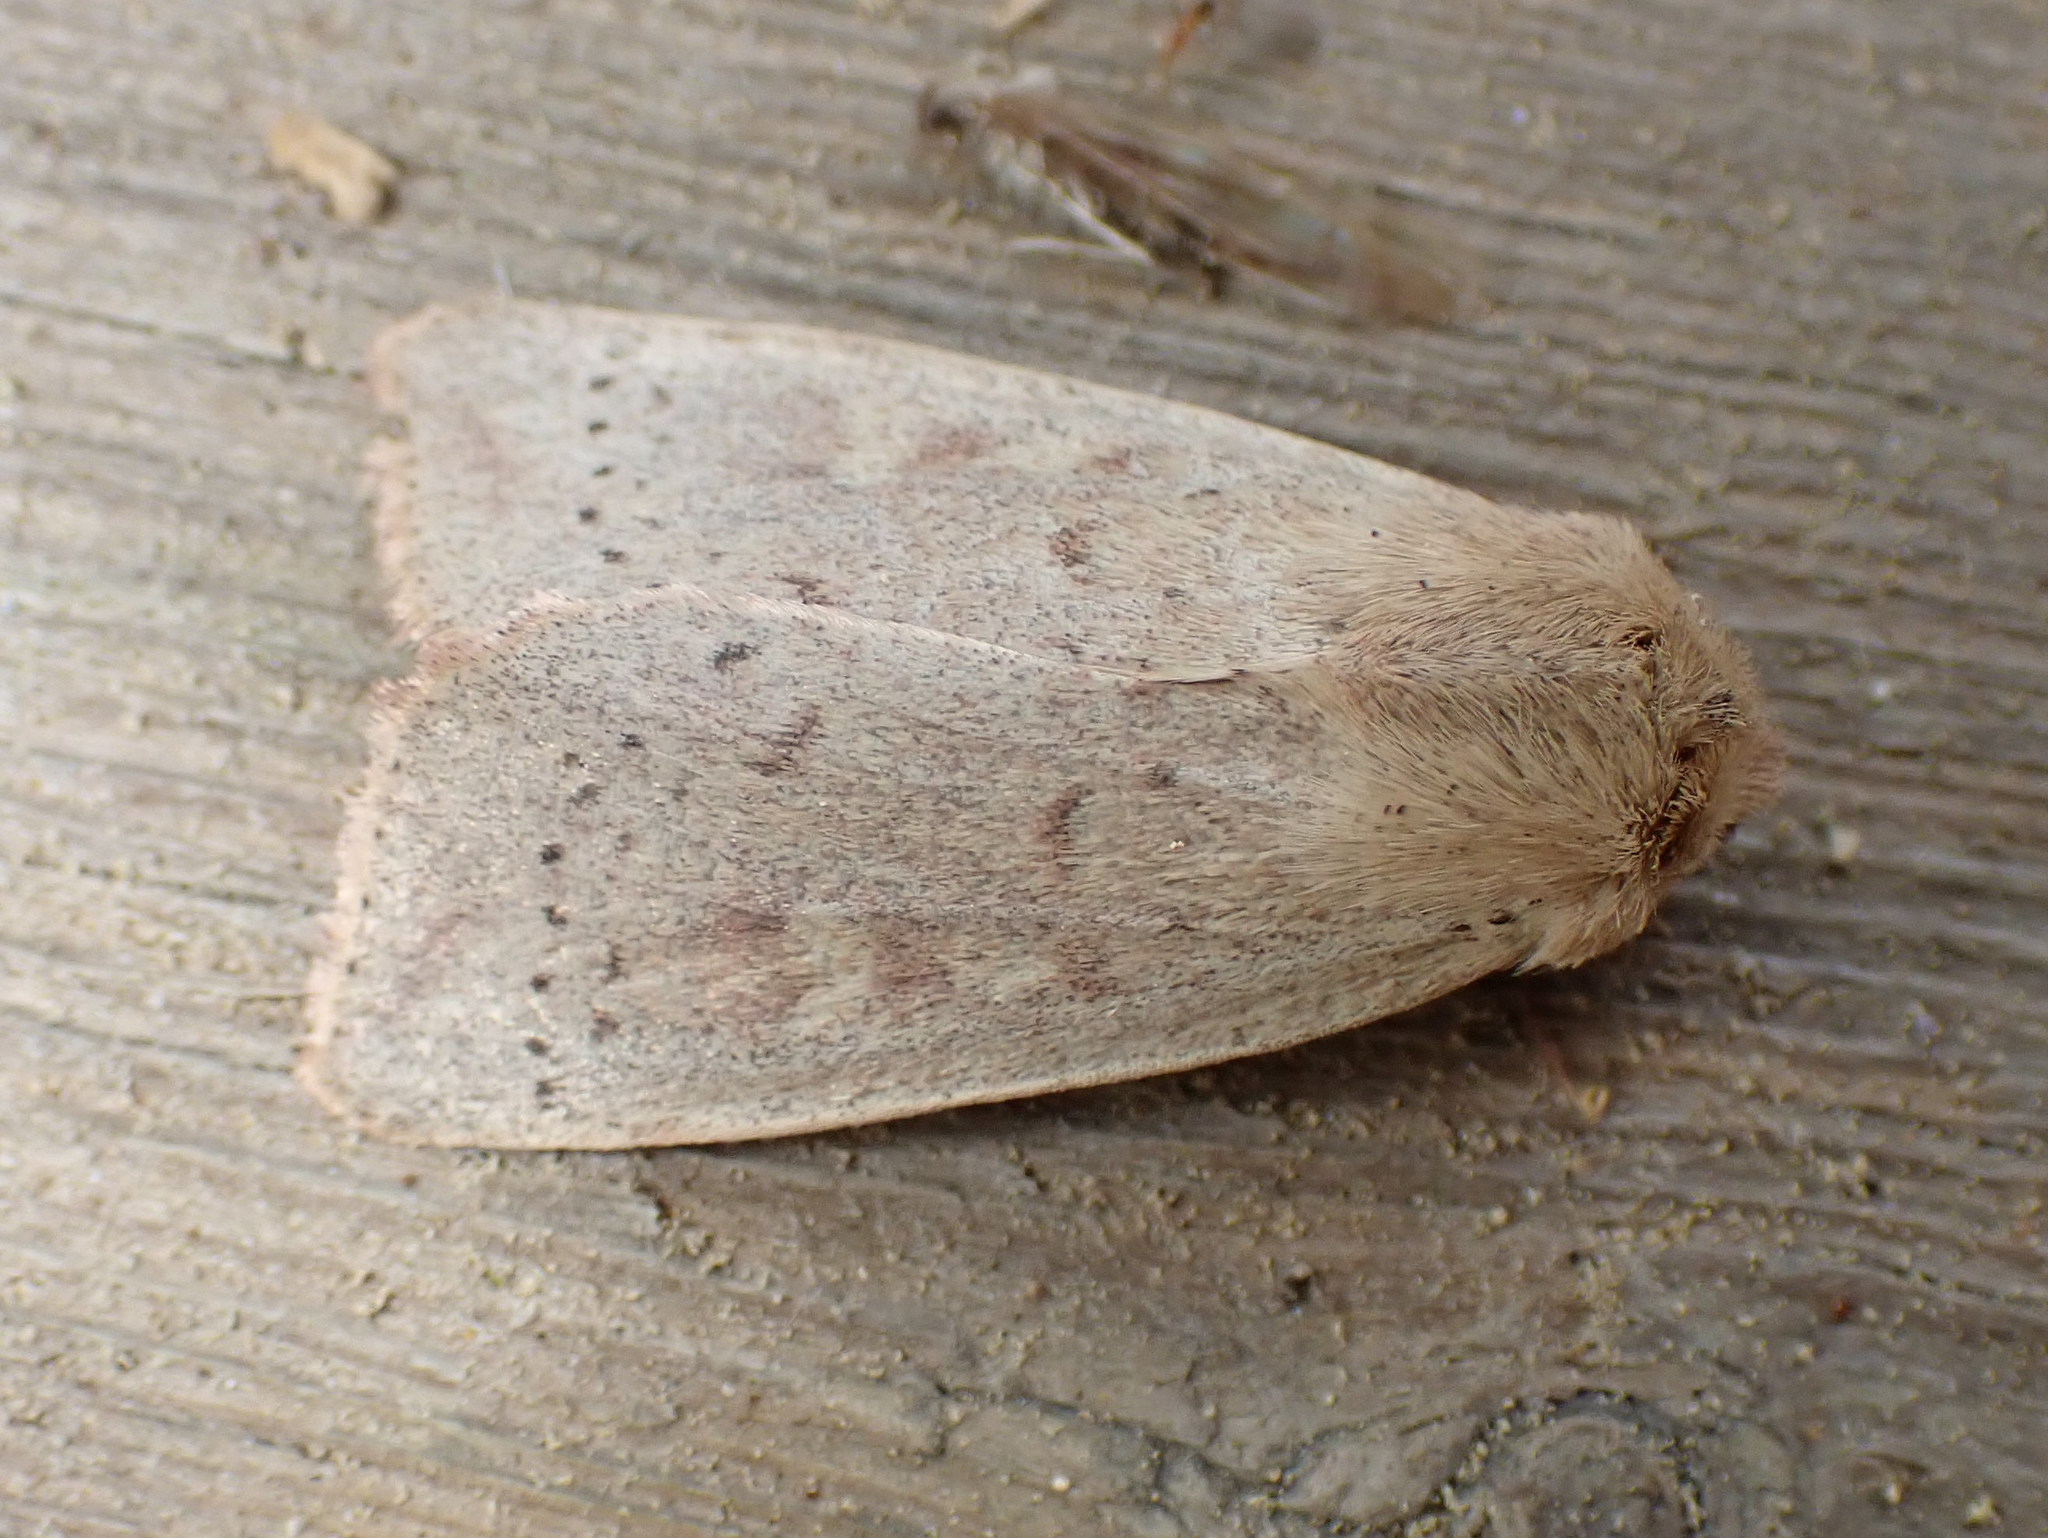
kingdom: Animalia
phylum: Arthropoda
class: Insecta
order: Lepidoptera
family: Noctuidae
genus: Leucania
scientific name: Leucania pseudargyria
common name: False wainscot
